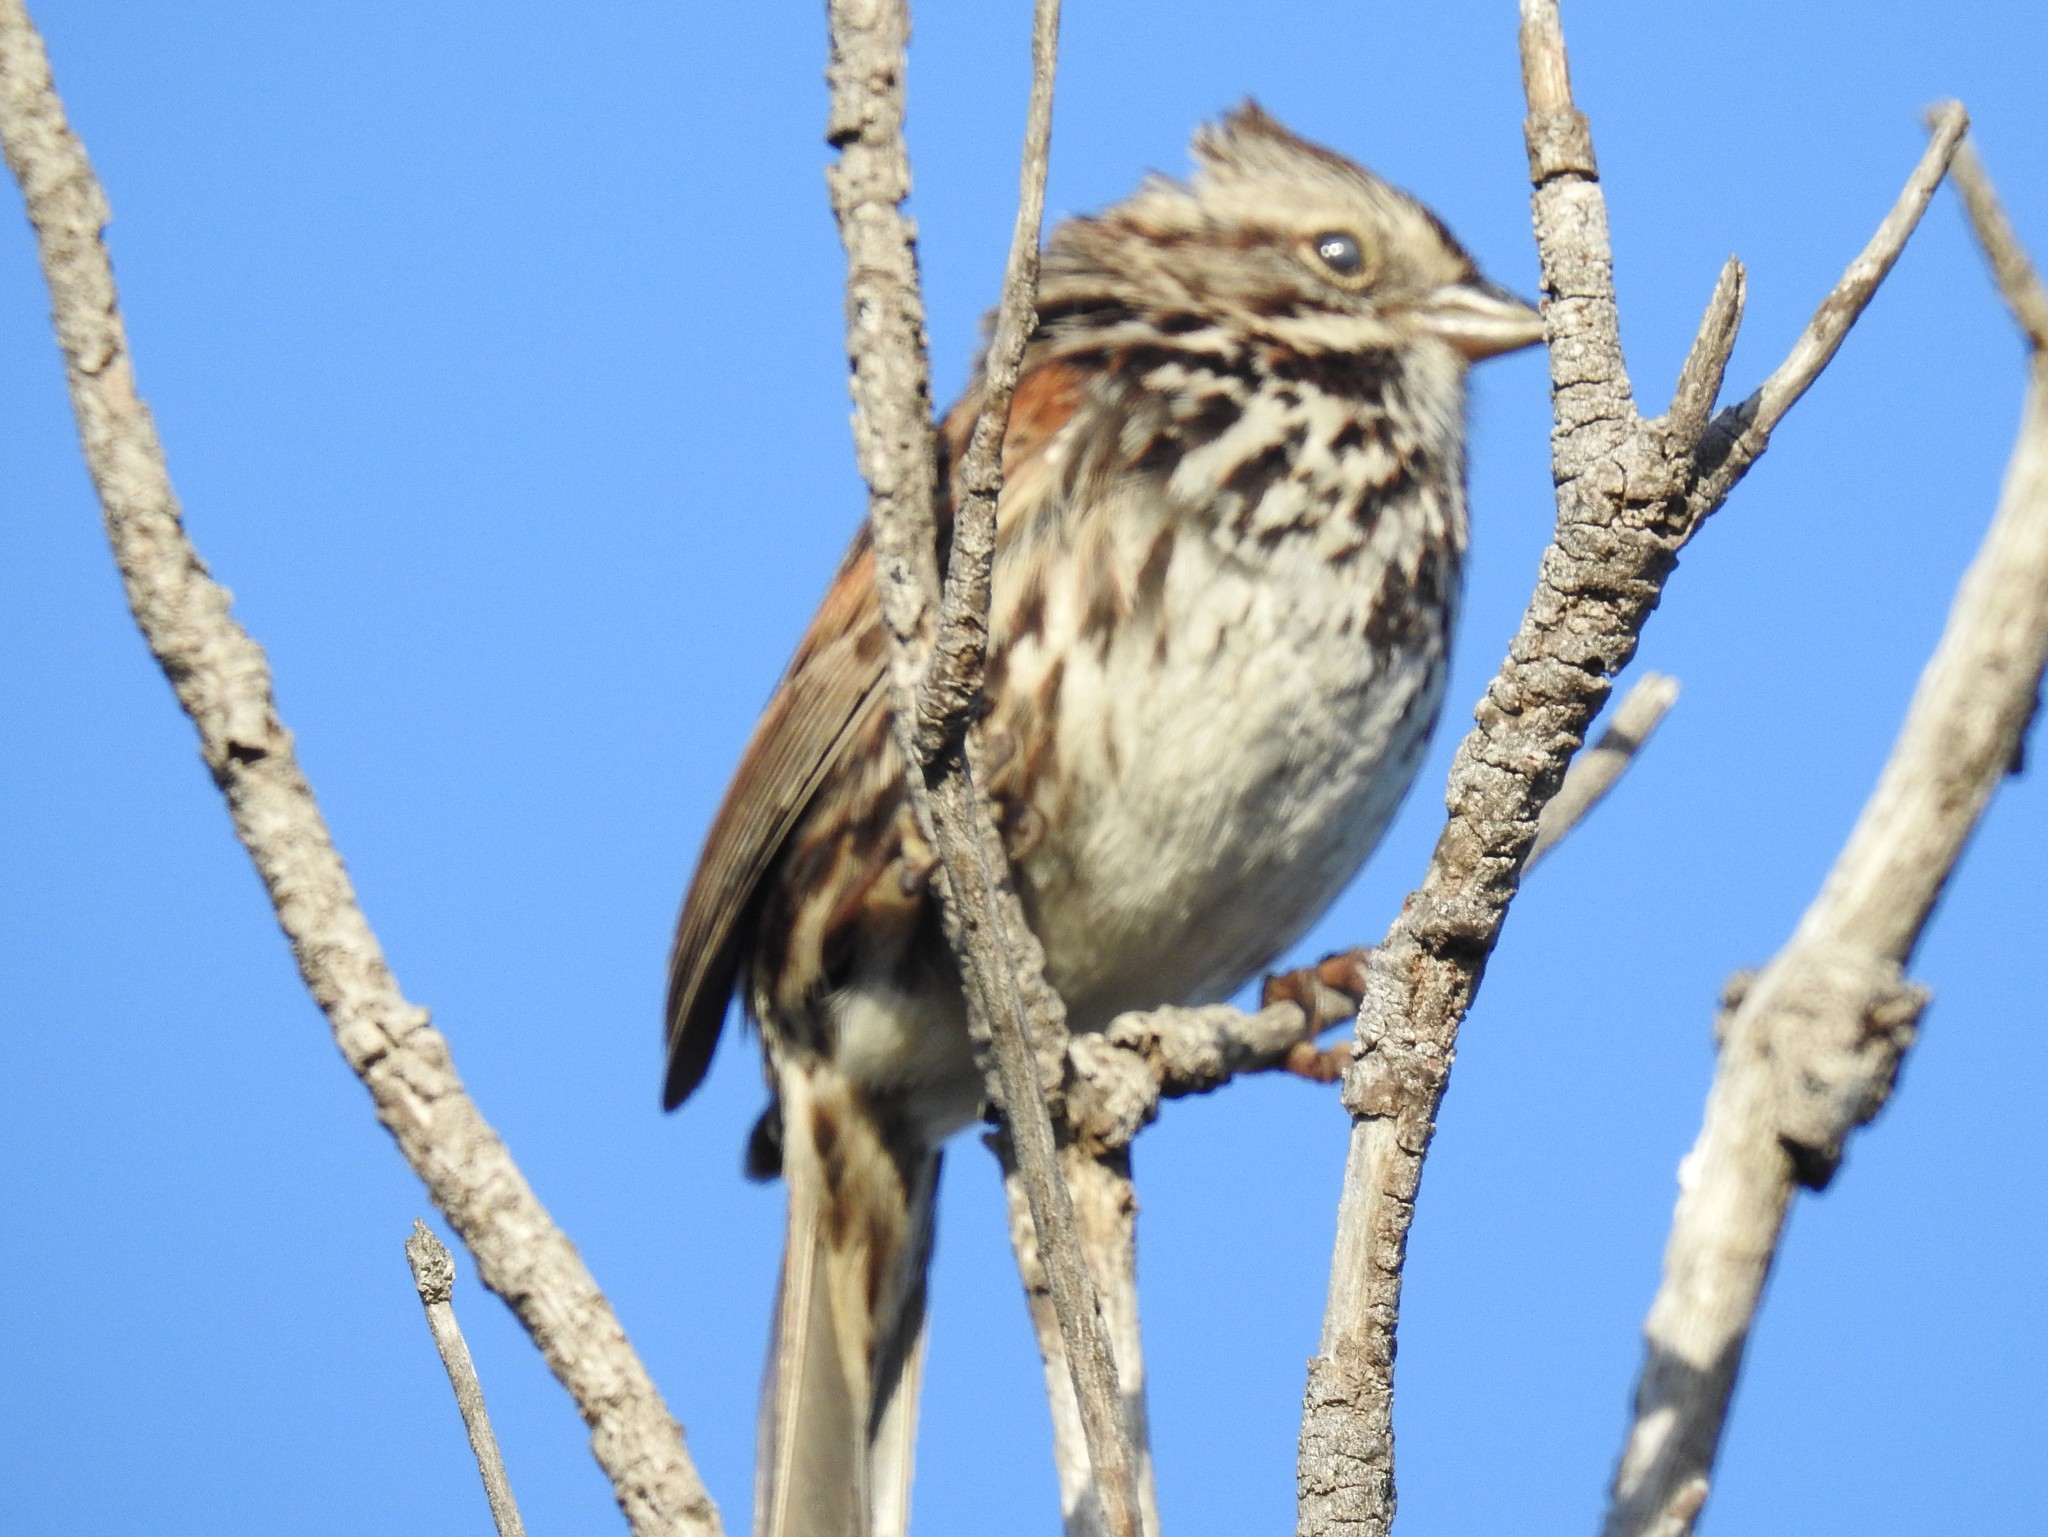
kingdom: Animalia
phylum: Chordata
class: Aves
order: Passeriformes
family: Passerellidae
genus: Melospiza
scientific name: Melospiza melodia
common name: Song sparrow
